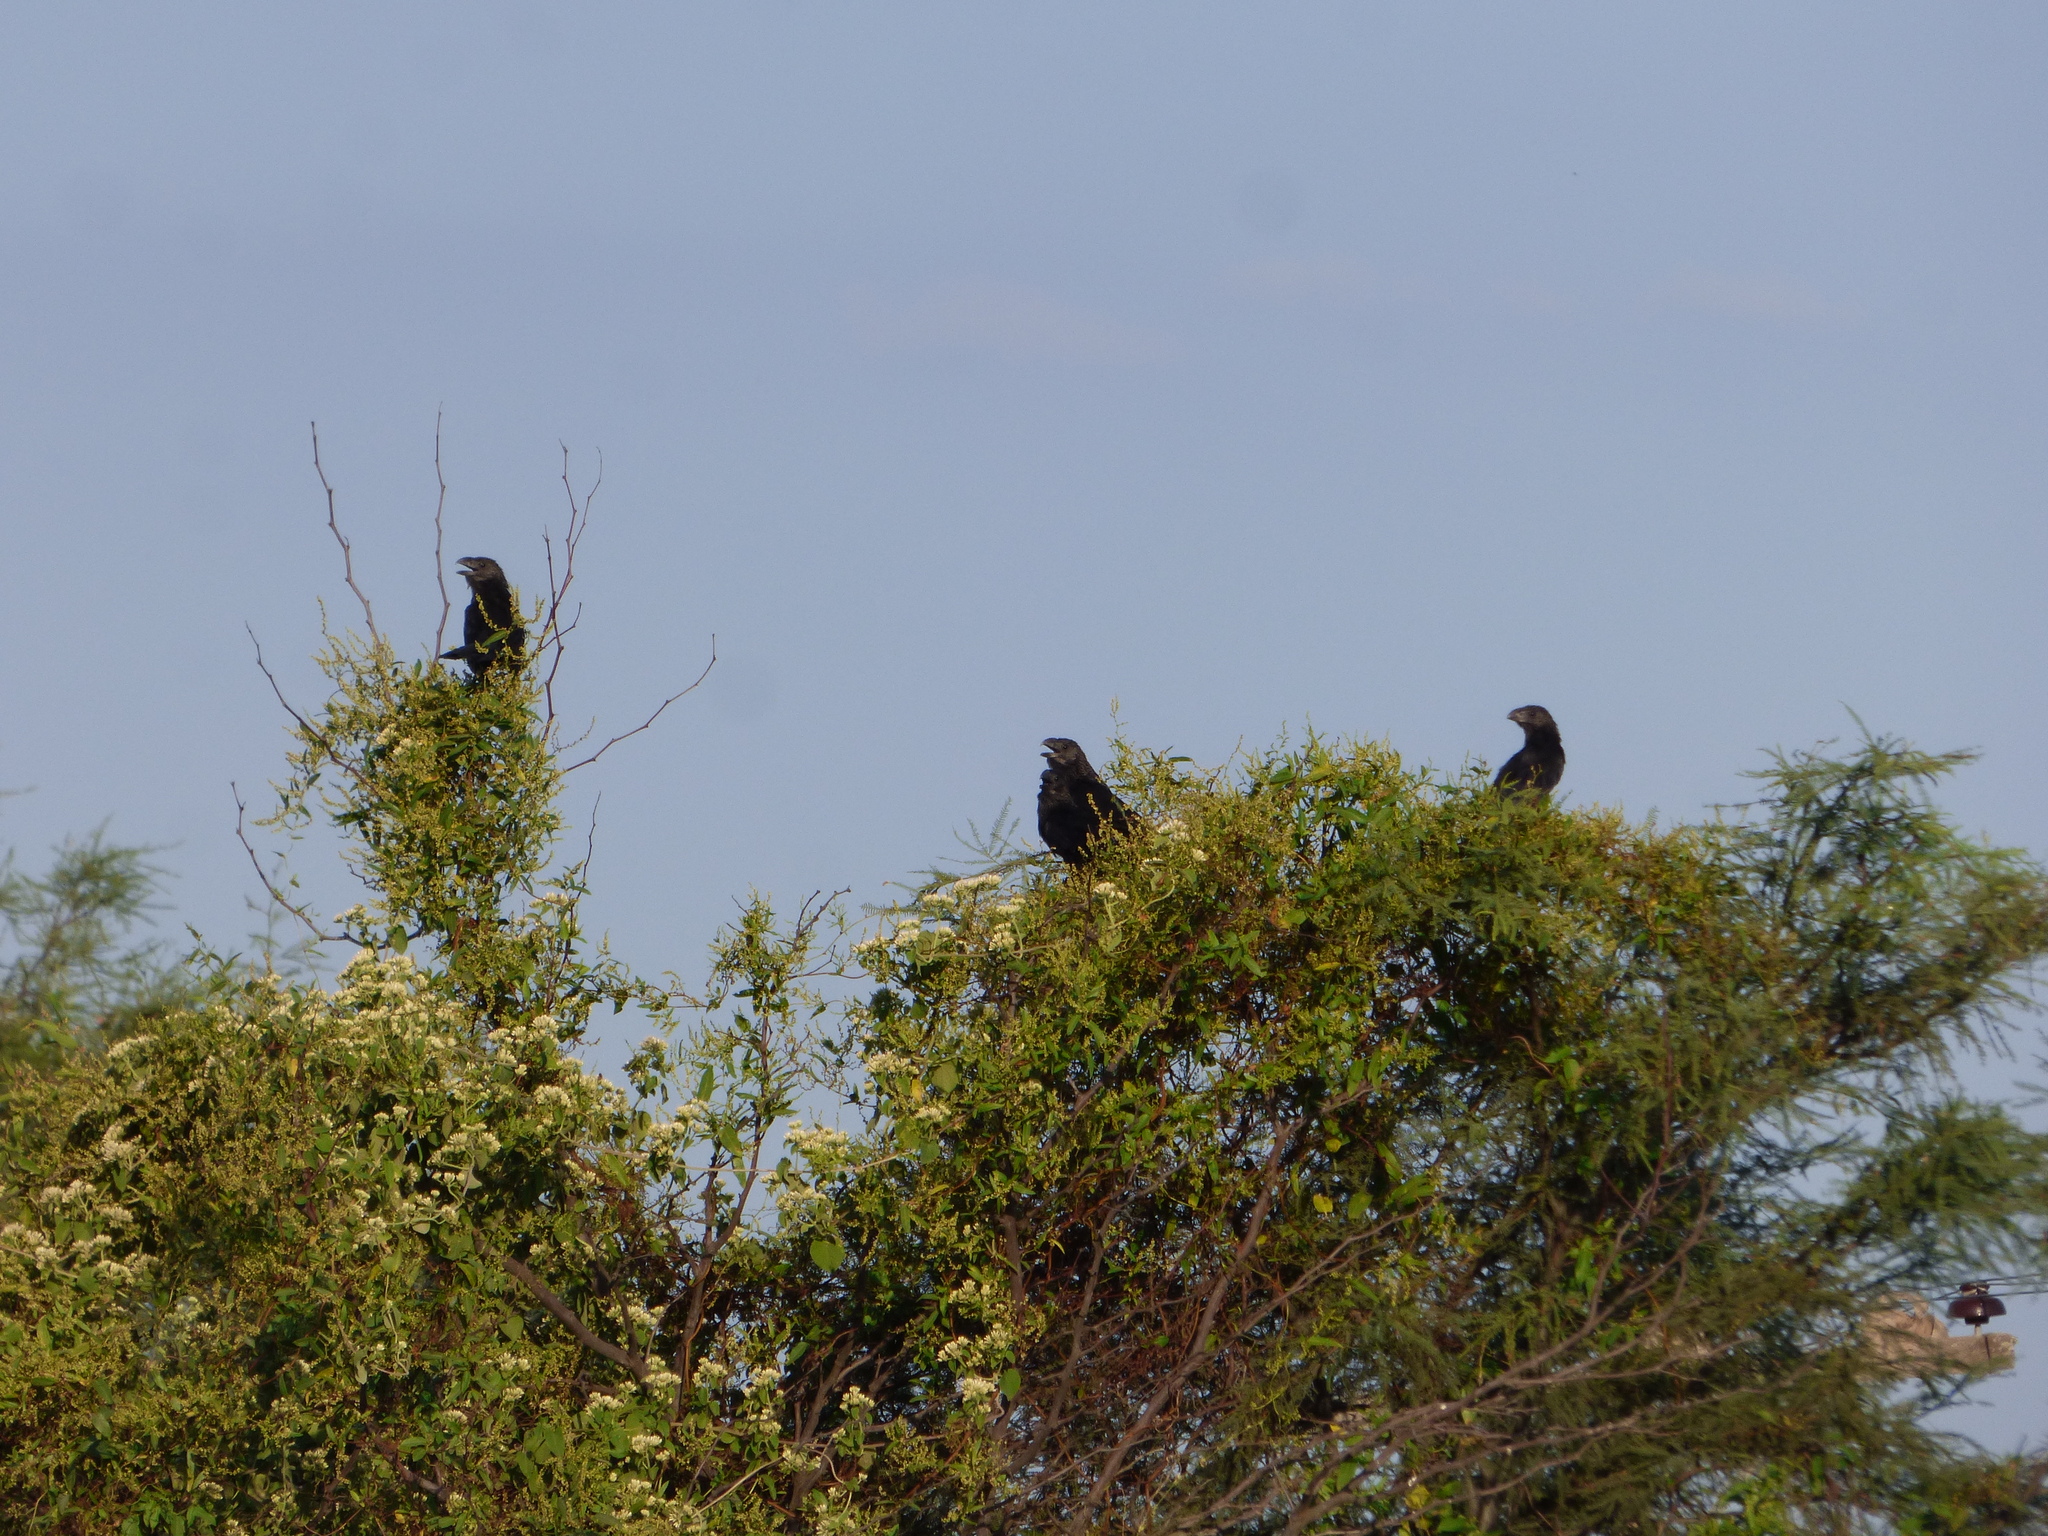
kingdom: Animalia
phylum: Chordata
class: Aves
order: Cuculiformes
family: Cuculidae
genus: Crotophaga
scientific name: Crotophaga ani
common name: Smooth-billed ani
